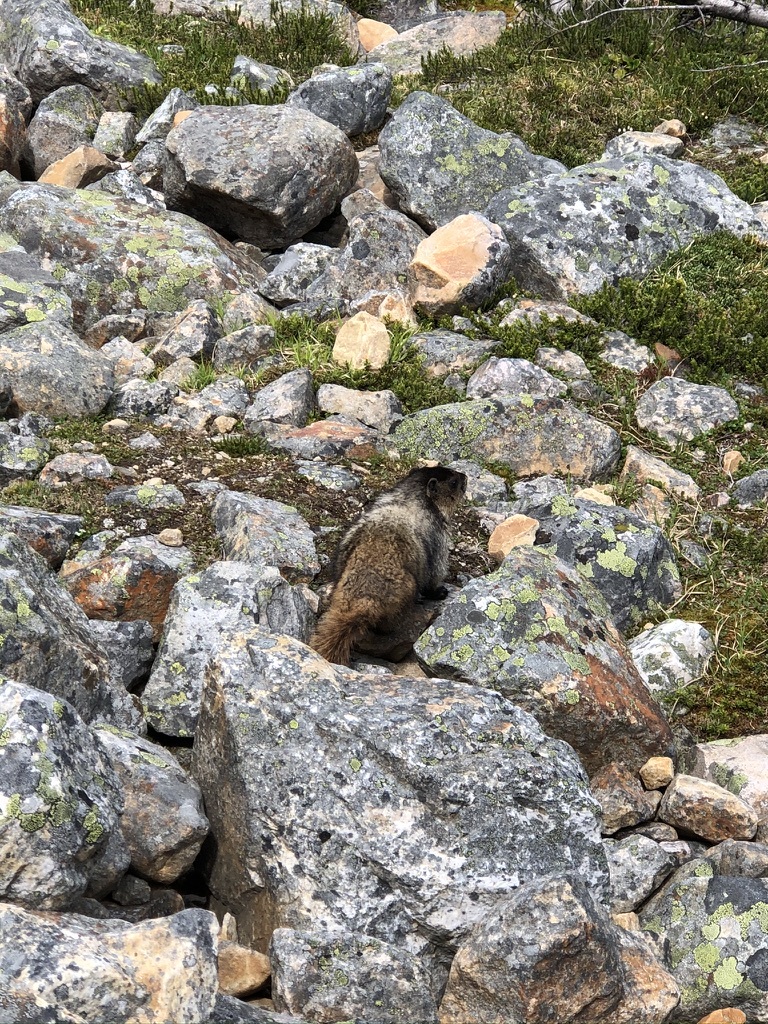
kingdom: Animalia
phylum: Chordata
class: Mammalia
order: Rodentia
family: Sciuridae
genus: Marmota
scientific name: Marmota caligata
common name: Hoary marmot
